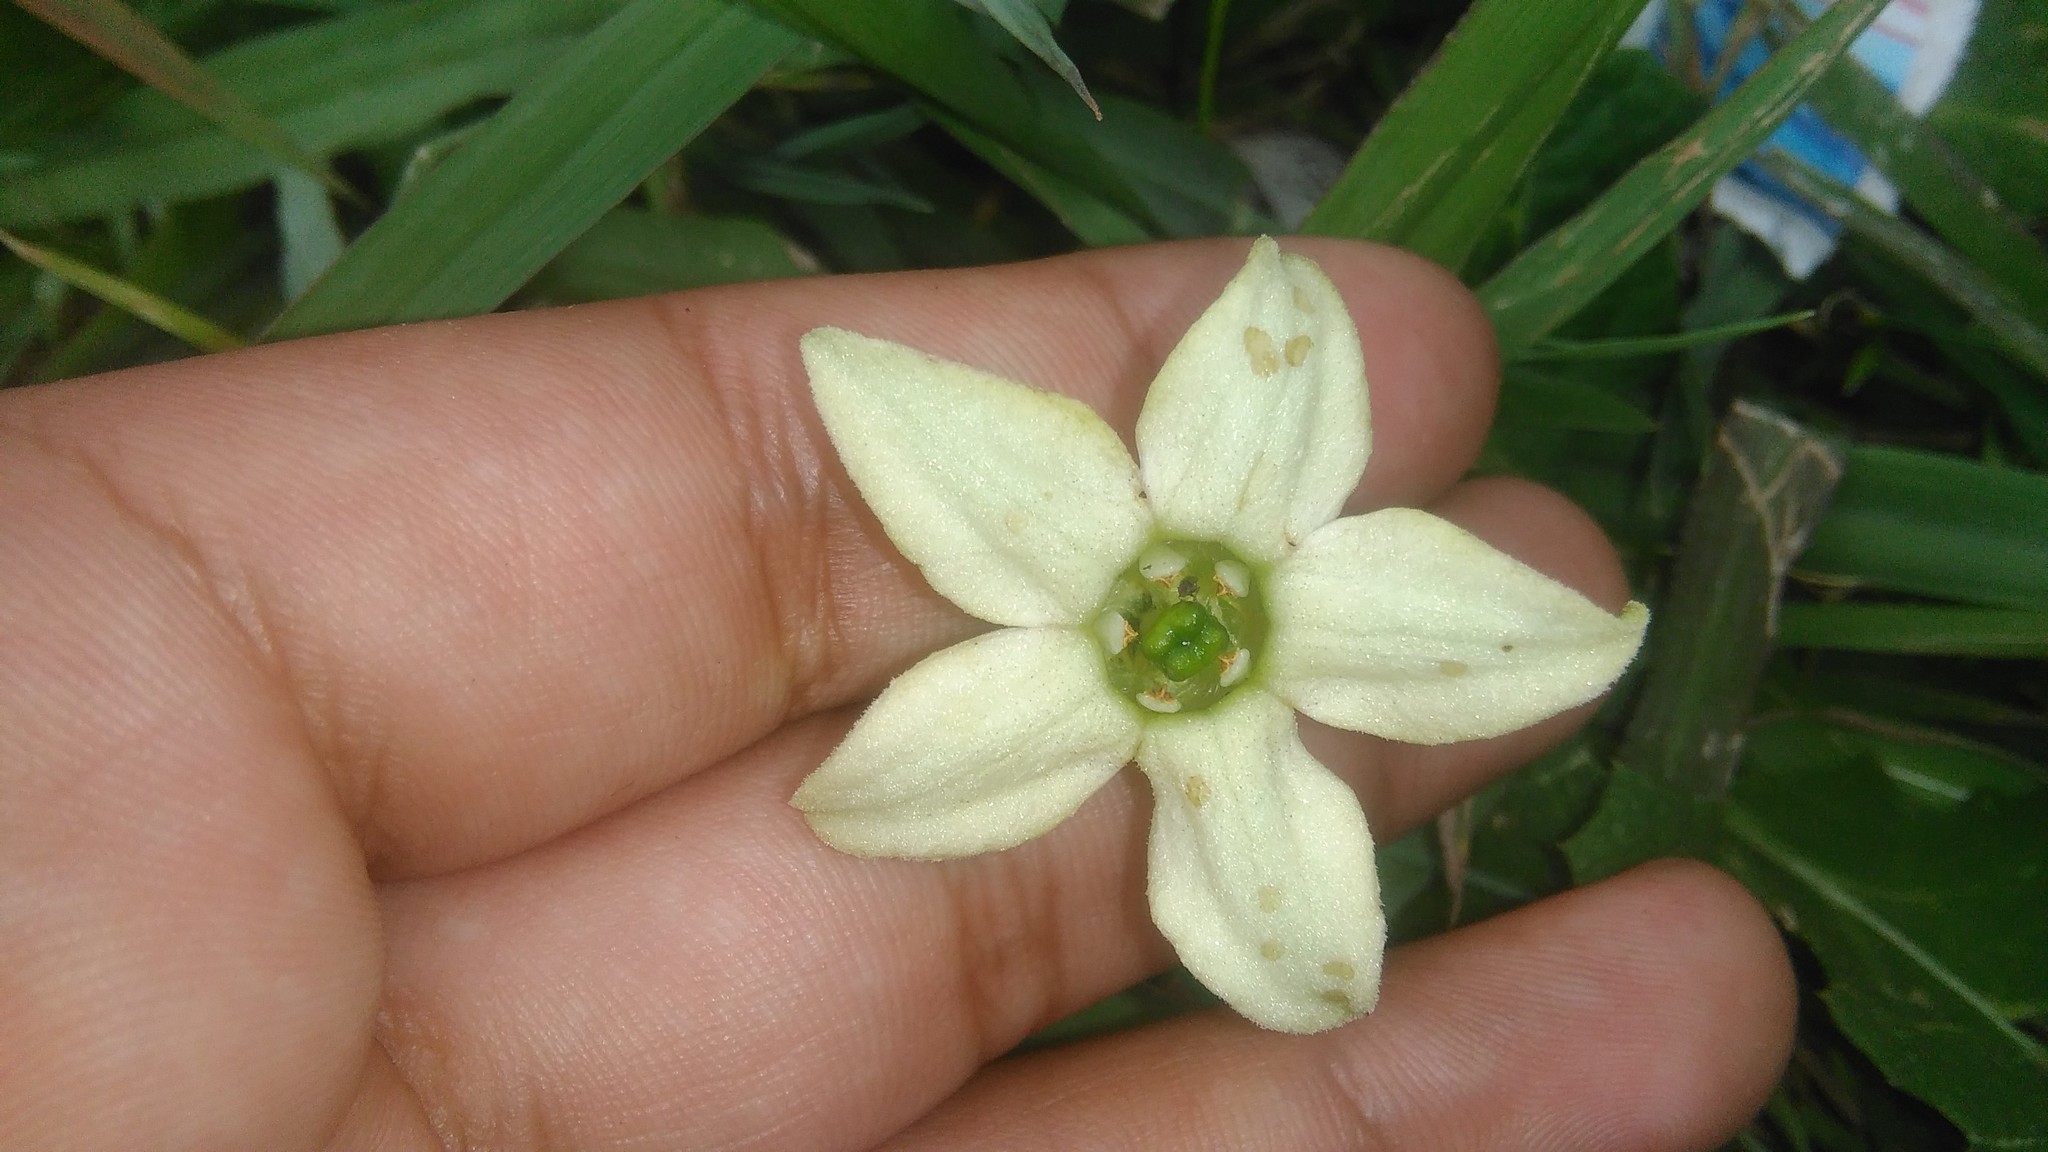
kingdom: Plantae
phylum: Tracheophyta
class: Magnoliopsida
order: Solanales
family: Solanaceae
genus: Jaborosa
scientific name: Jaborosa runcinata
